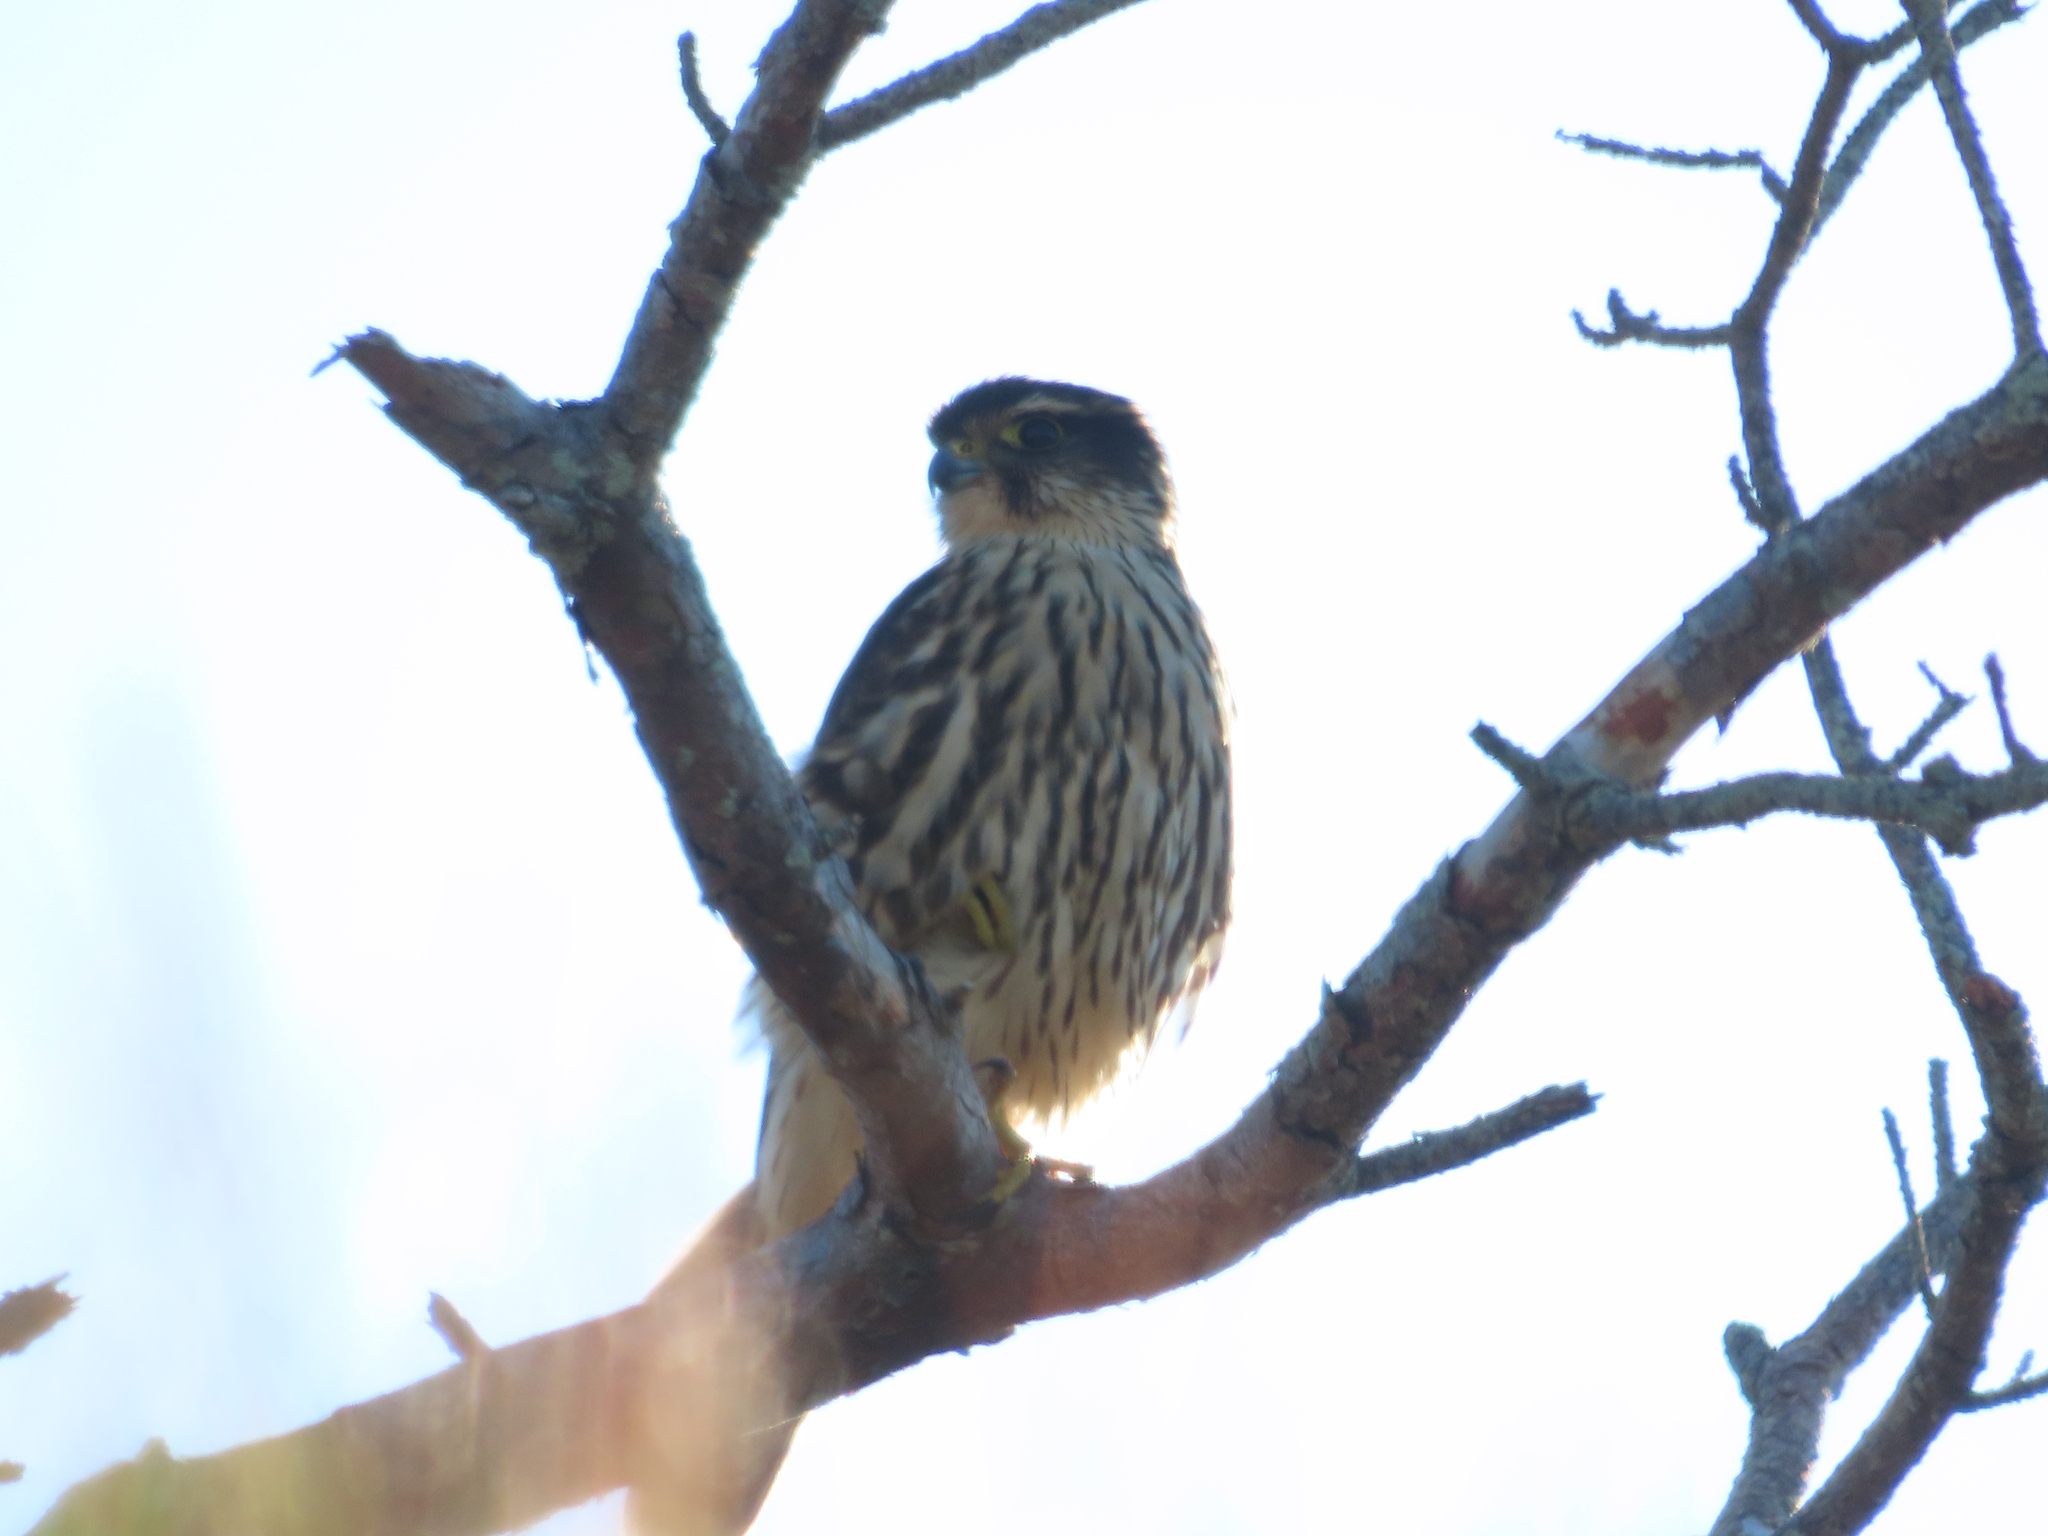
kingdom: Animalia
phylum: Chordata
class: Aves
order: Falconiformes
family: Falconidae
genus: Falco
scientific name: Falco columbarius
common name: Merlin
